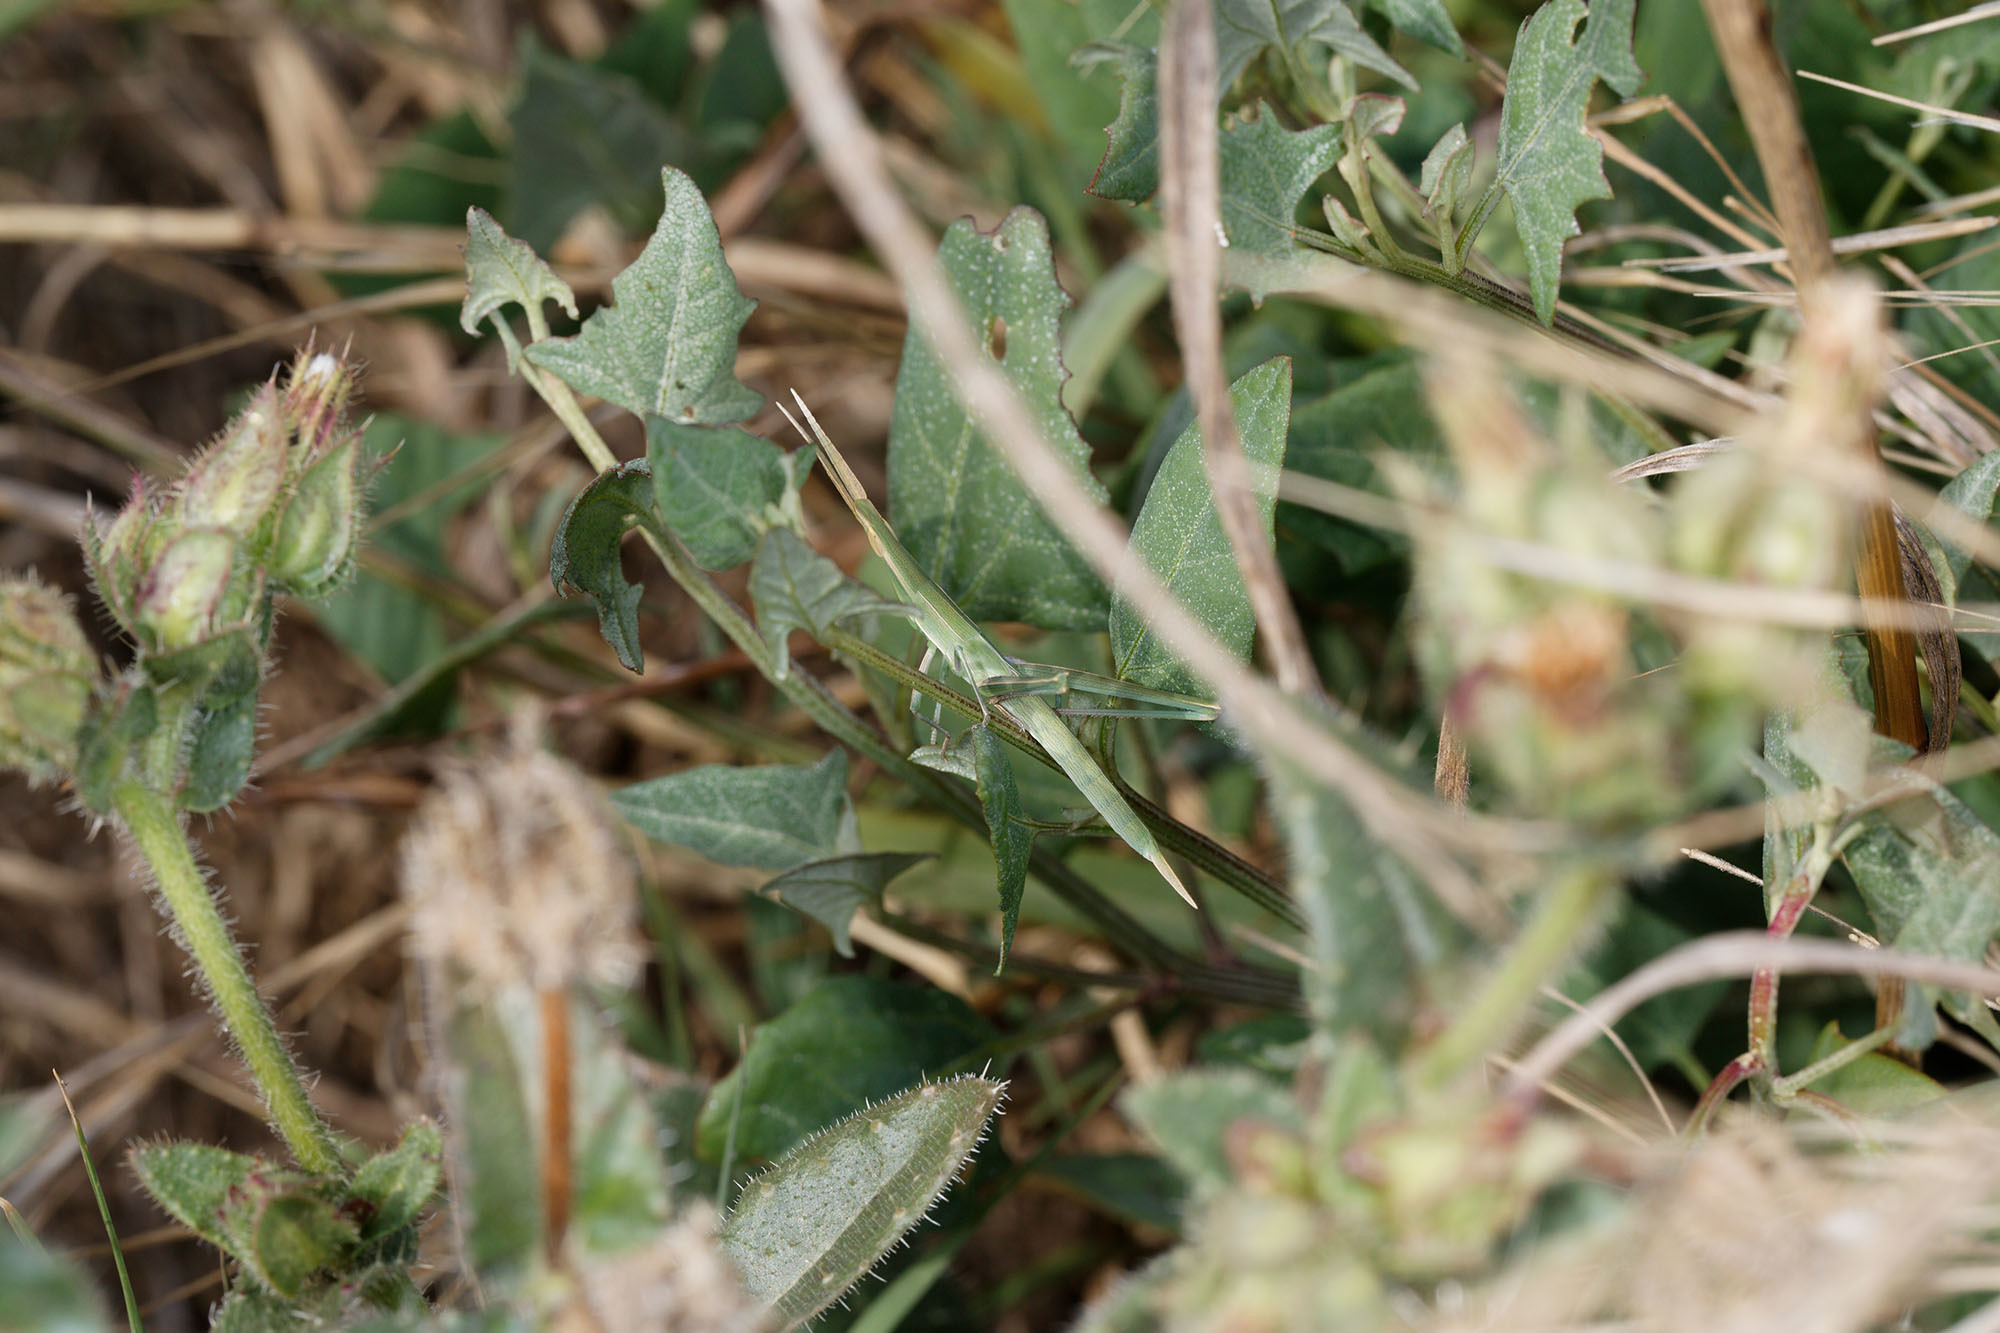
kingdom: Animalia
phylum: Arthropoda
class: Insecta
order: Orthoptera
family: Acrididae
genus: Acrida
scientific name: Acrida conica
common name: Giant green slantface
